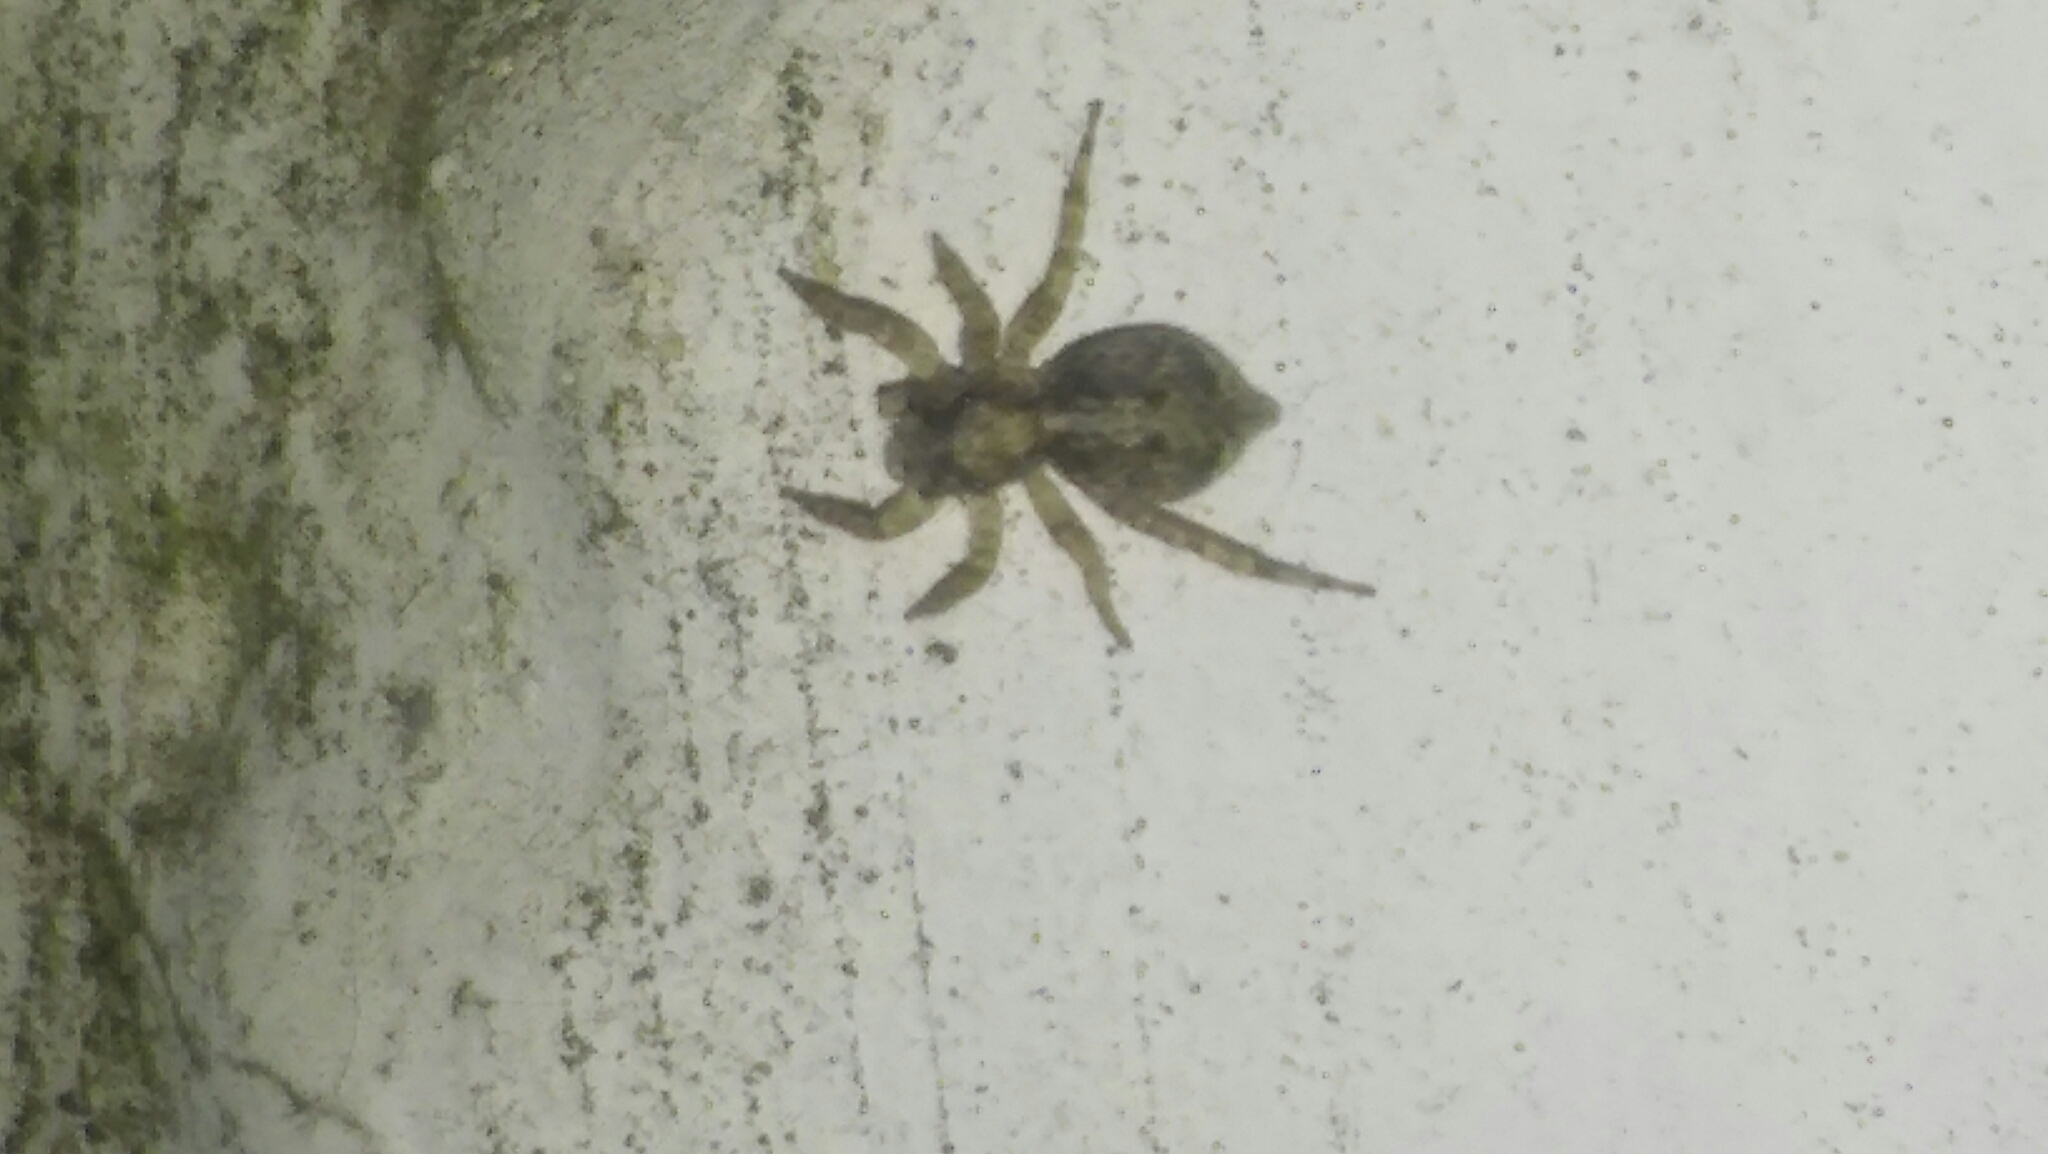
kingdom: Animalia
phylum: Arthropoda
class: Arachnida
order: Araneae
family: Salticidae
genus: Saitis
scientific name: Saitis variegatus
